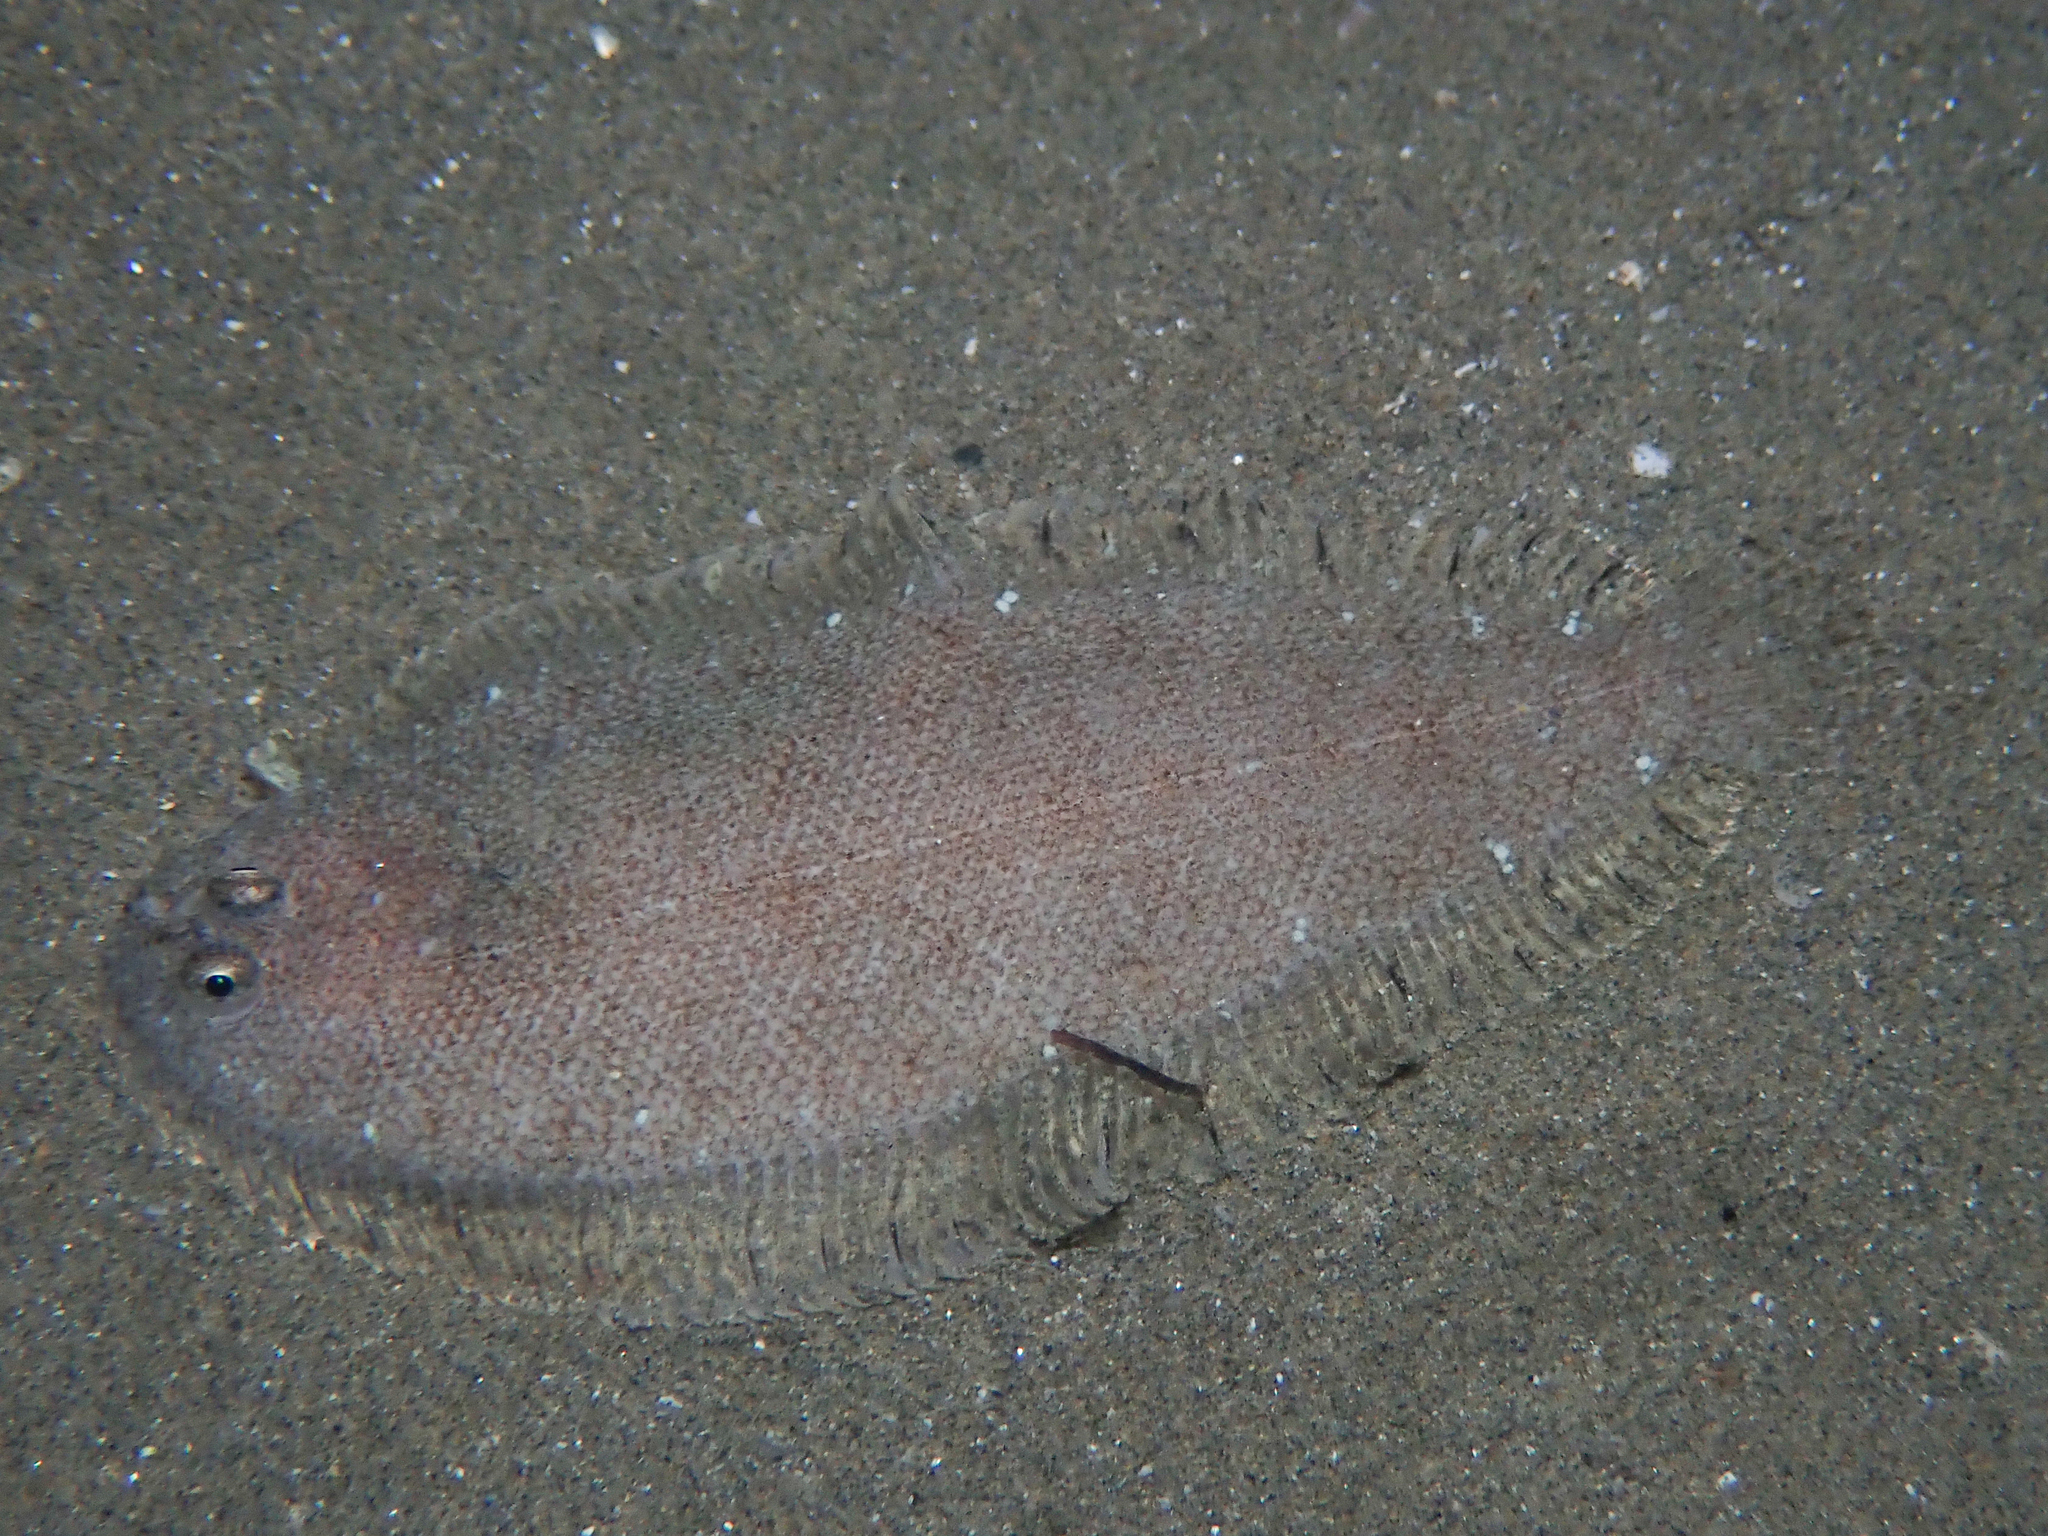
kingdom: Animalia
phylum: Chordata
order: Pleuronectiformes
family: Soleidae
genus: Buglossidium
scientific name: Buglossidium luteum
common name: Solenette
